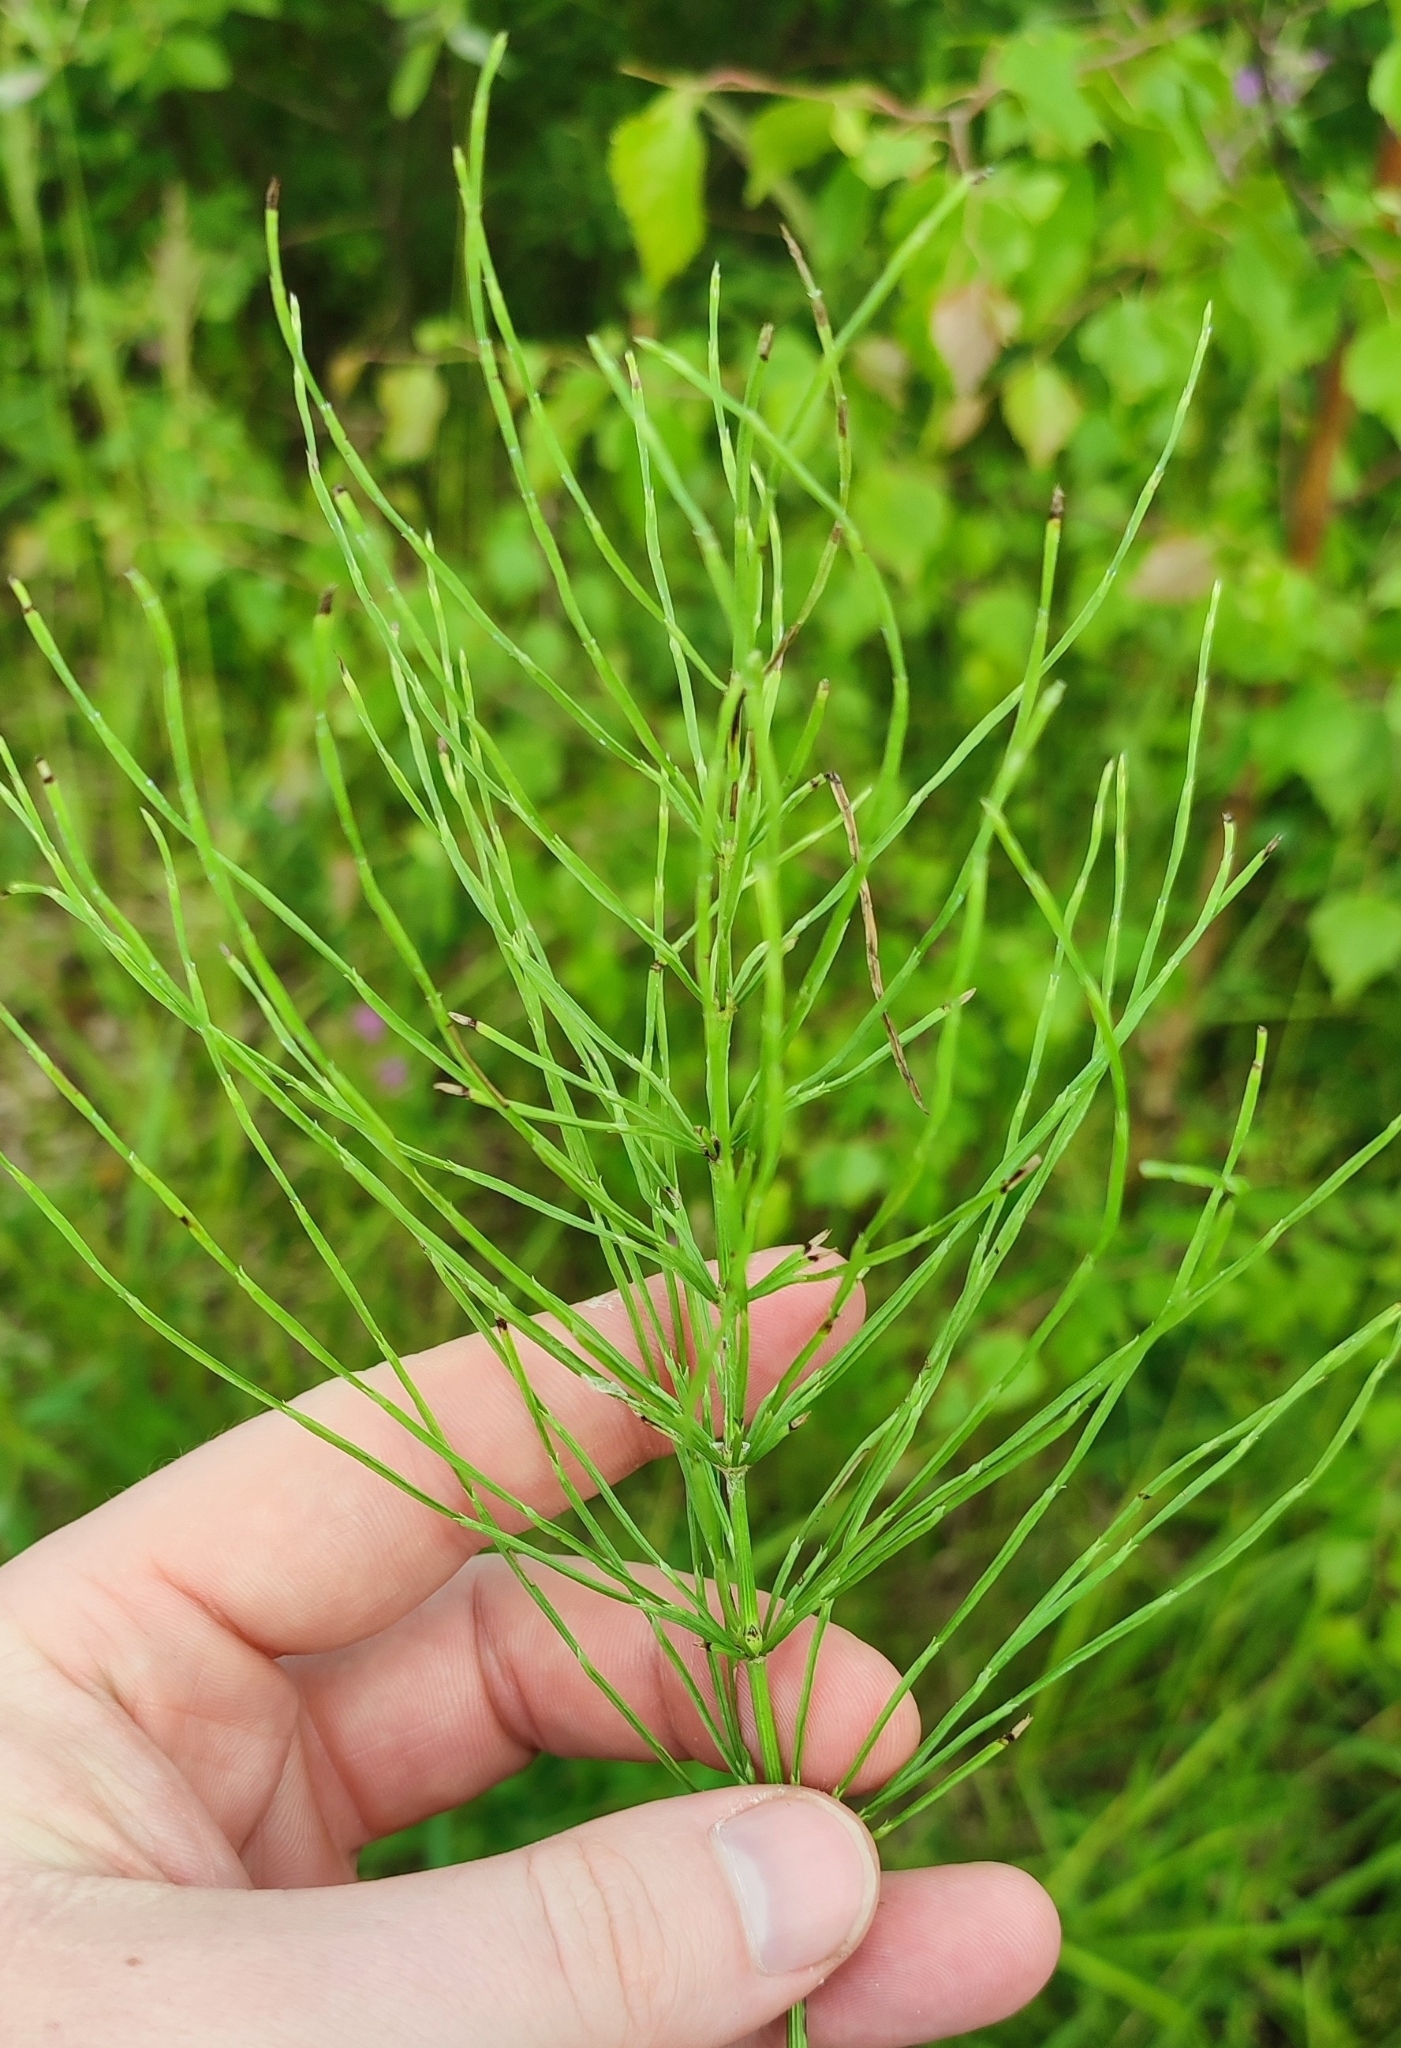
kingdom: Plantae
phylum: Tracheophyta
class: Polypodiopsida
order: Equisetales
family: Equisetaceae
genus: Equisetum
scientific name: Equisetum arvense
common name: Field horsetail
